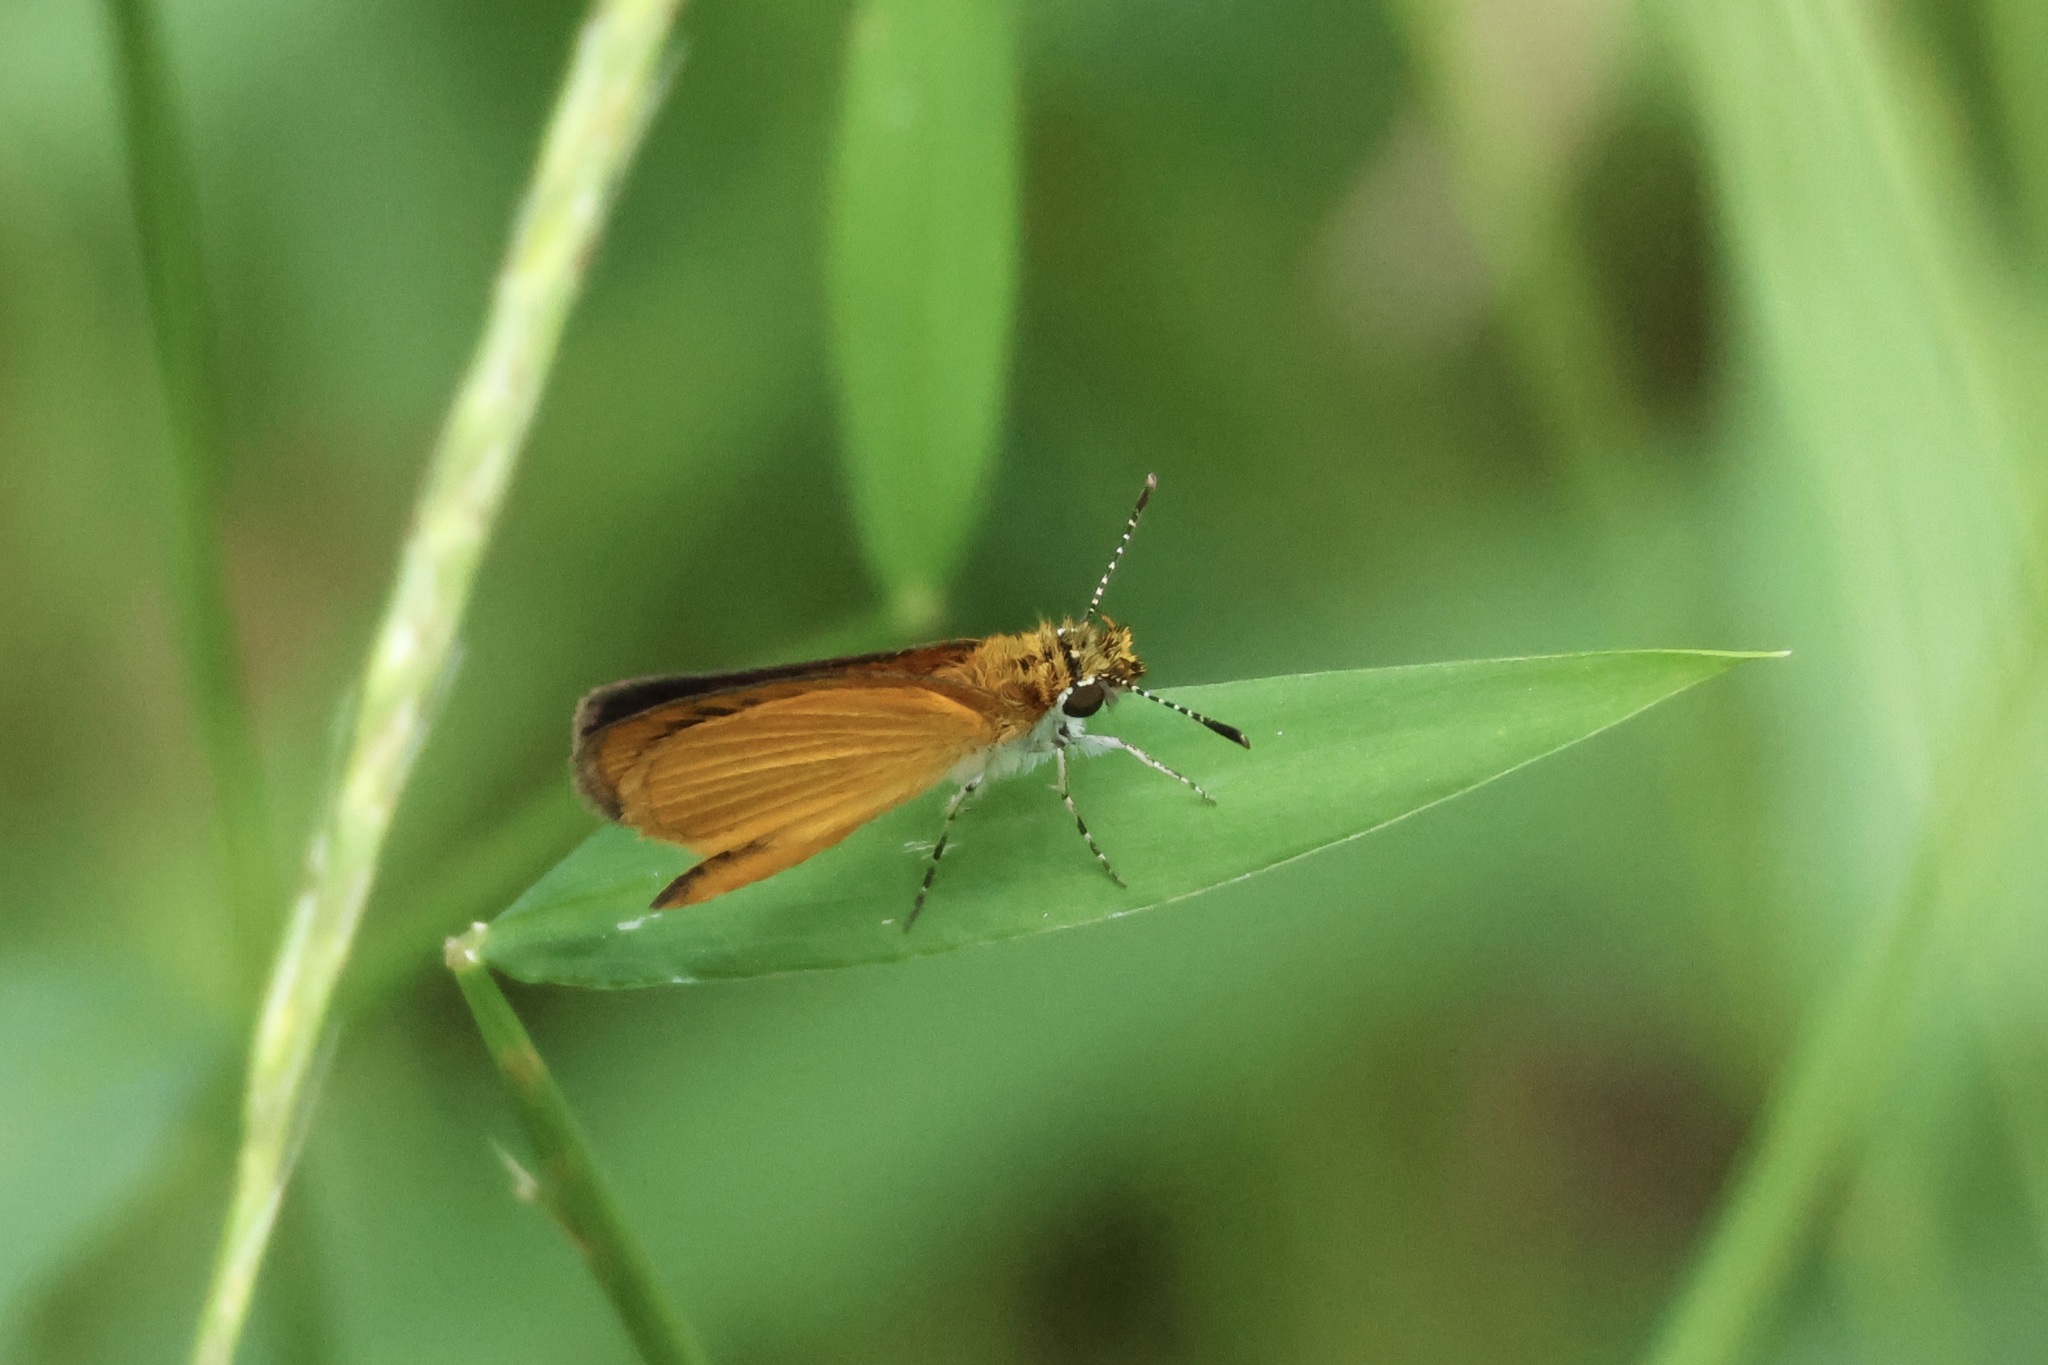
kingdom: Animalia
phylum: Arthropoda
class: Insecta
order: Lepidoptera
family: Hesperiidae
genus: Ancyloxypha
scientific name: Ancyloxypha numitor
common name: Least skipper
